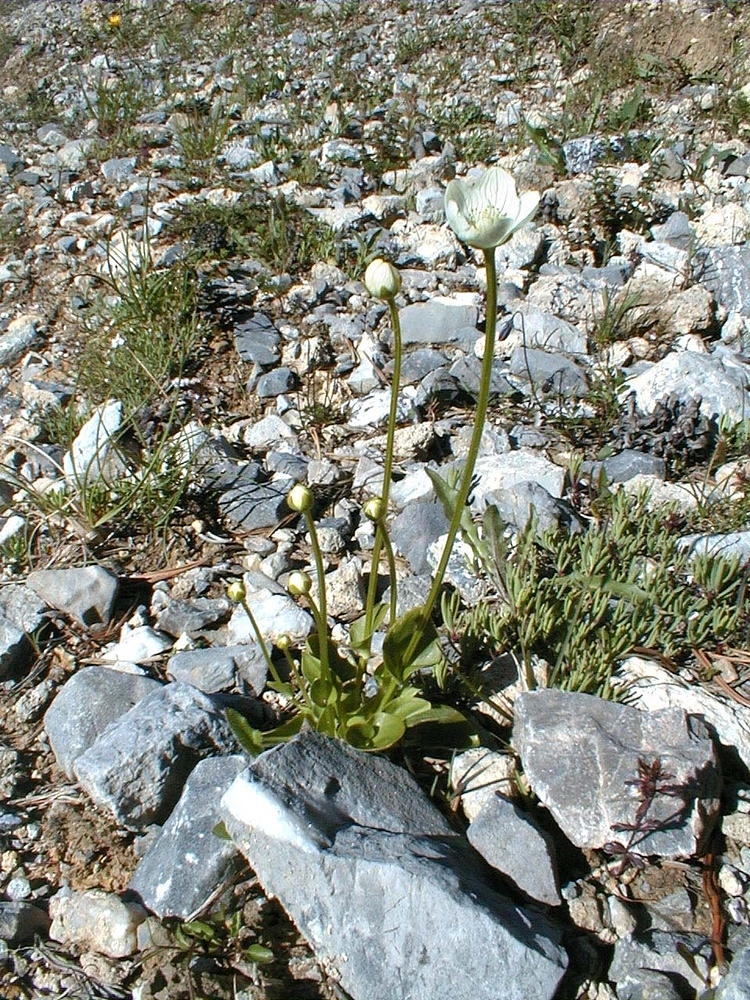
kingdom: Plantae
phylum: Tracheophyta
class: Magnoliopsida
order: Celastrales
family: Parnassiaceae
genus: Parnassia
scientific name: Parnassia palustris
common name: Grass-of-parnassus
